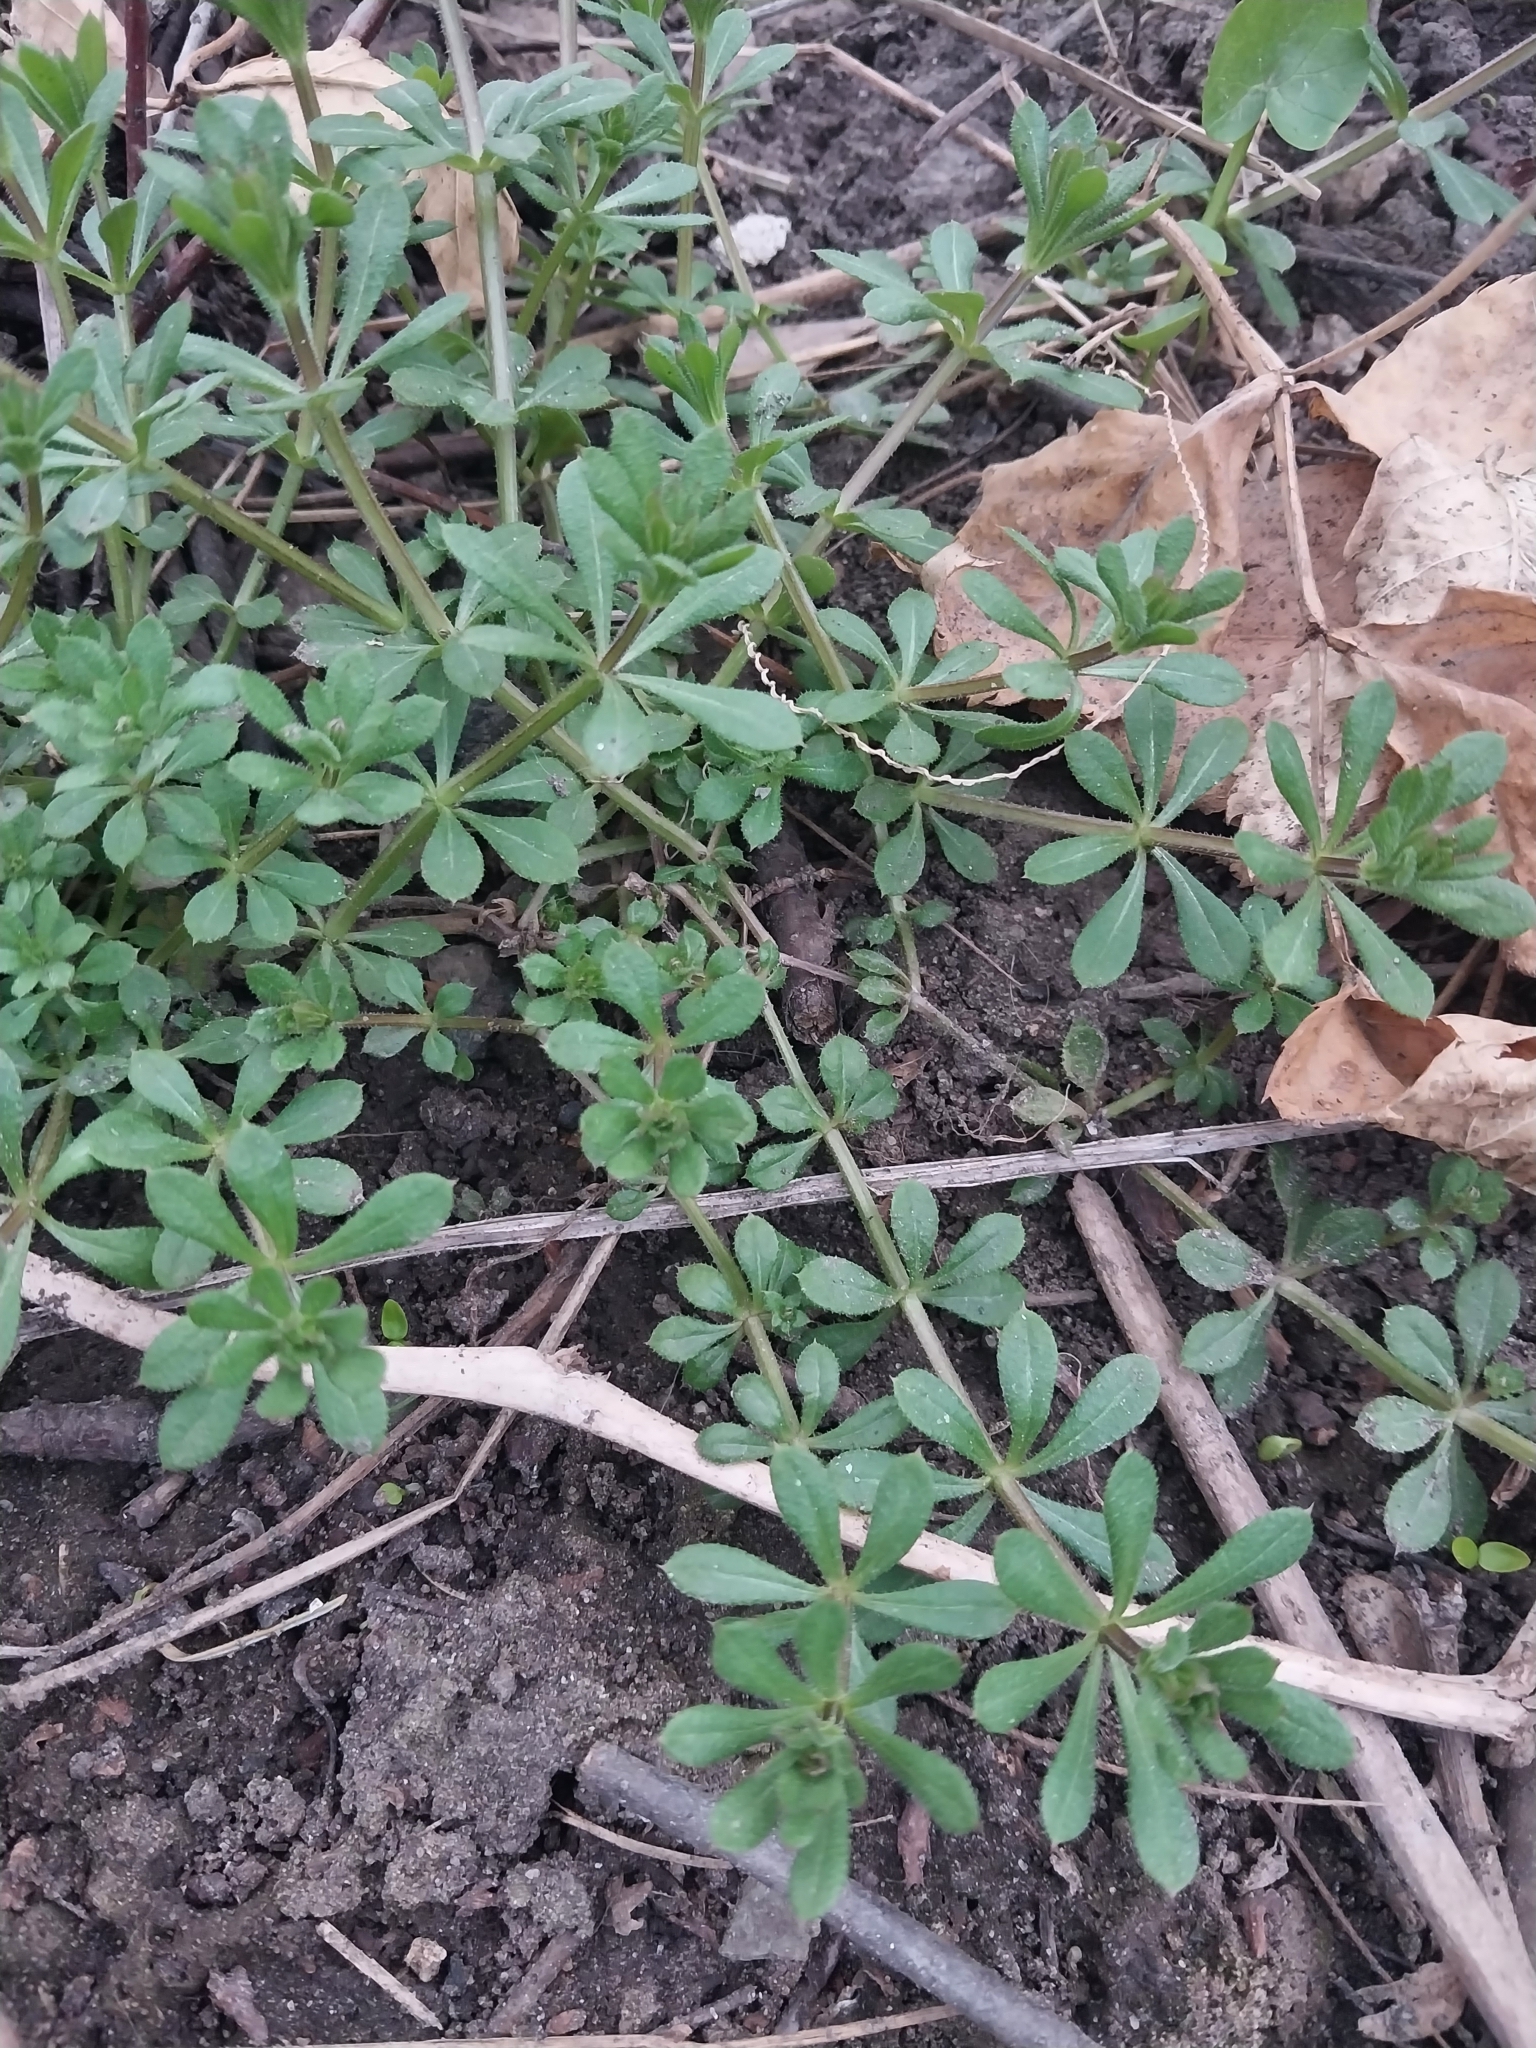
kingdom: Plantae
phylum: Tracheophyta
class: Magnoliopsida
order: Gentianales
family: Rubiaceae
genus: Galium
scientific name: Galium aparine
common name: Cleavers
